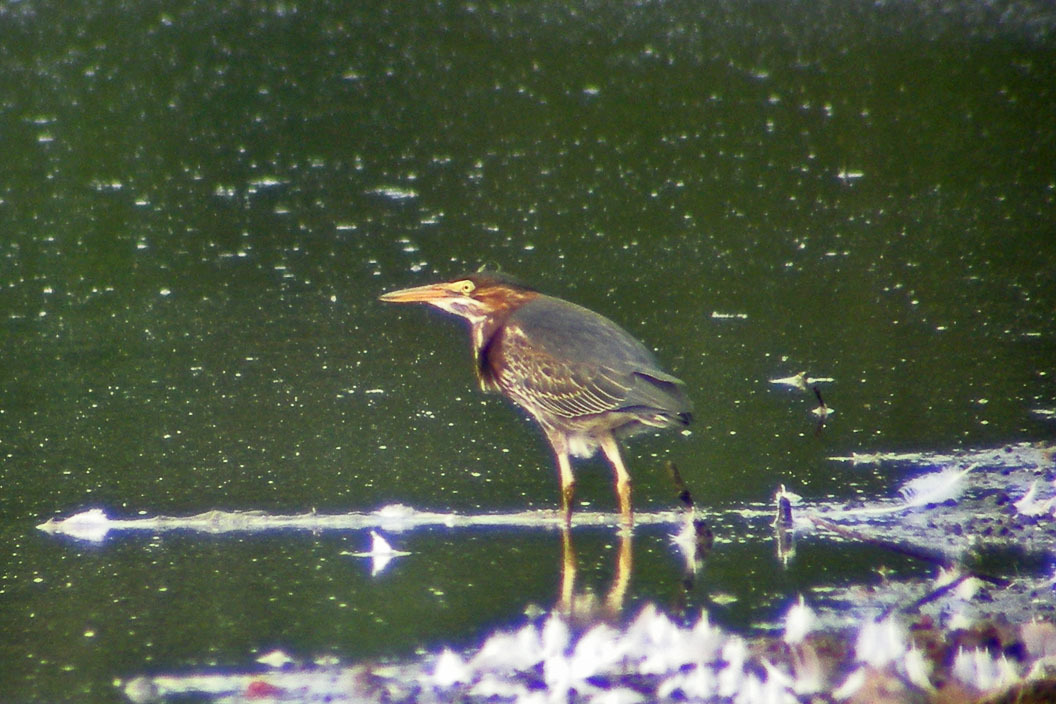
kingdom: Animalia
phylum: Chordata
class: Aves
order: Pelecaniformes
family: Ardeidae
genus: Butorides
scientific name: Butorides virescens
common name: Green heron
